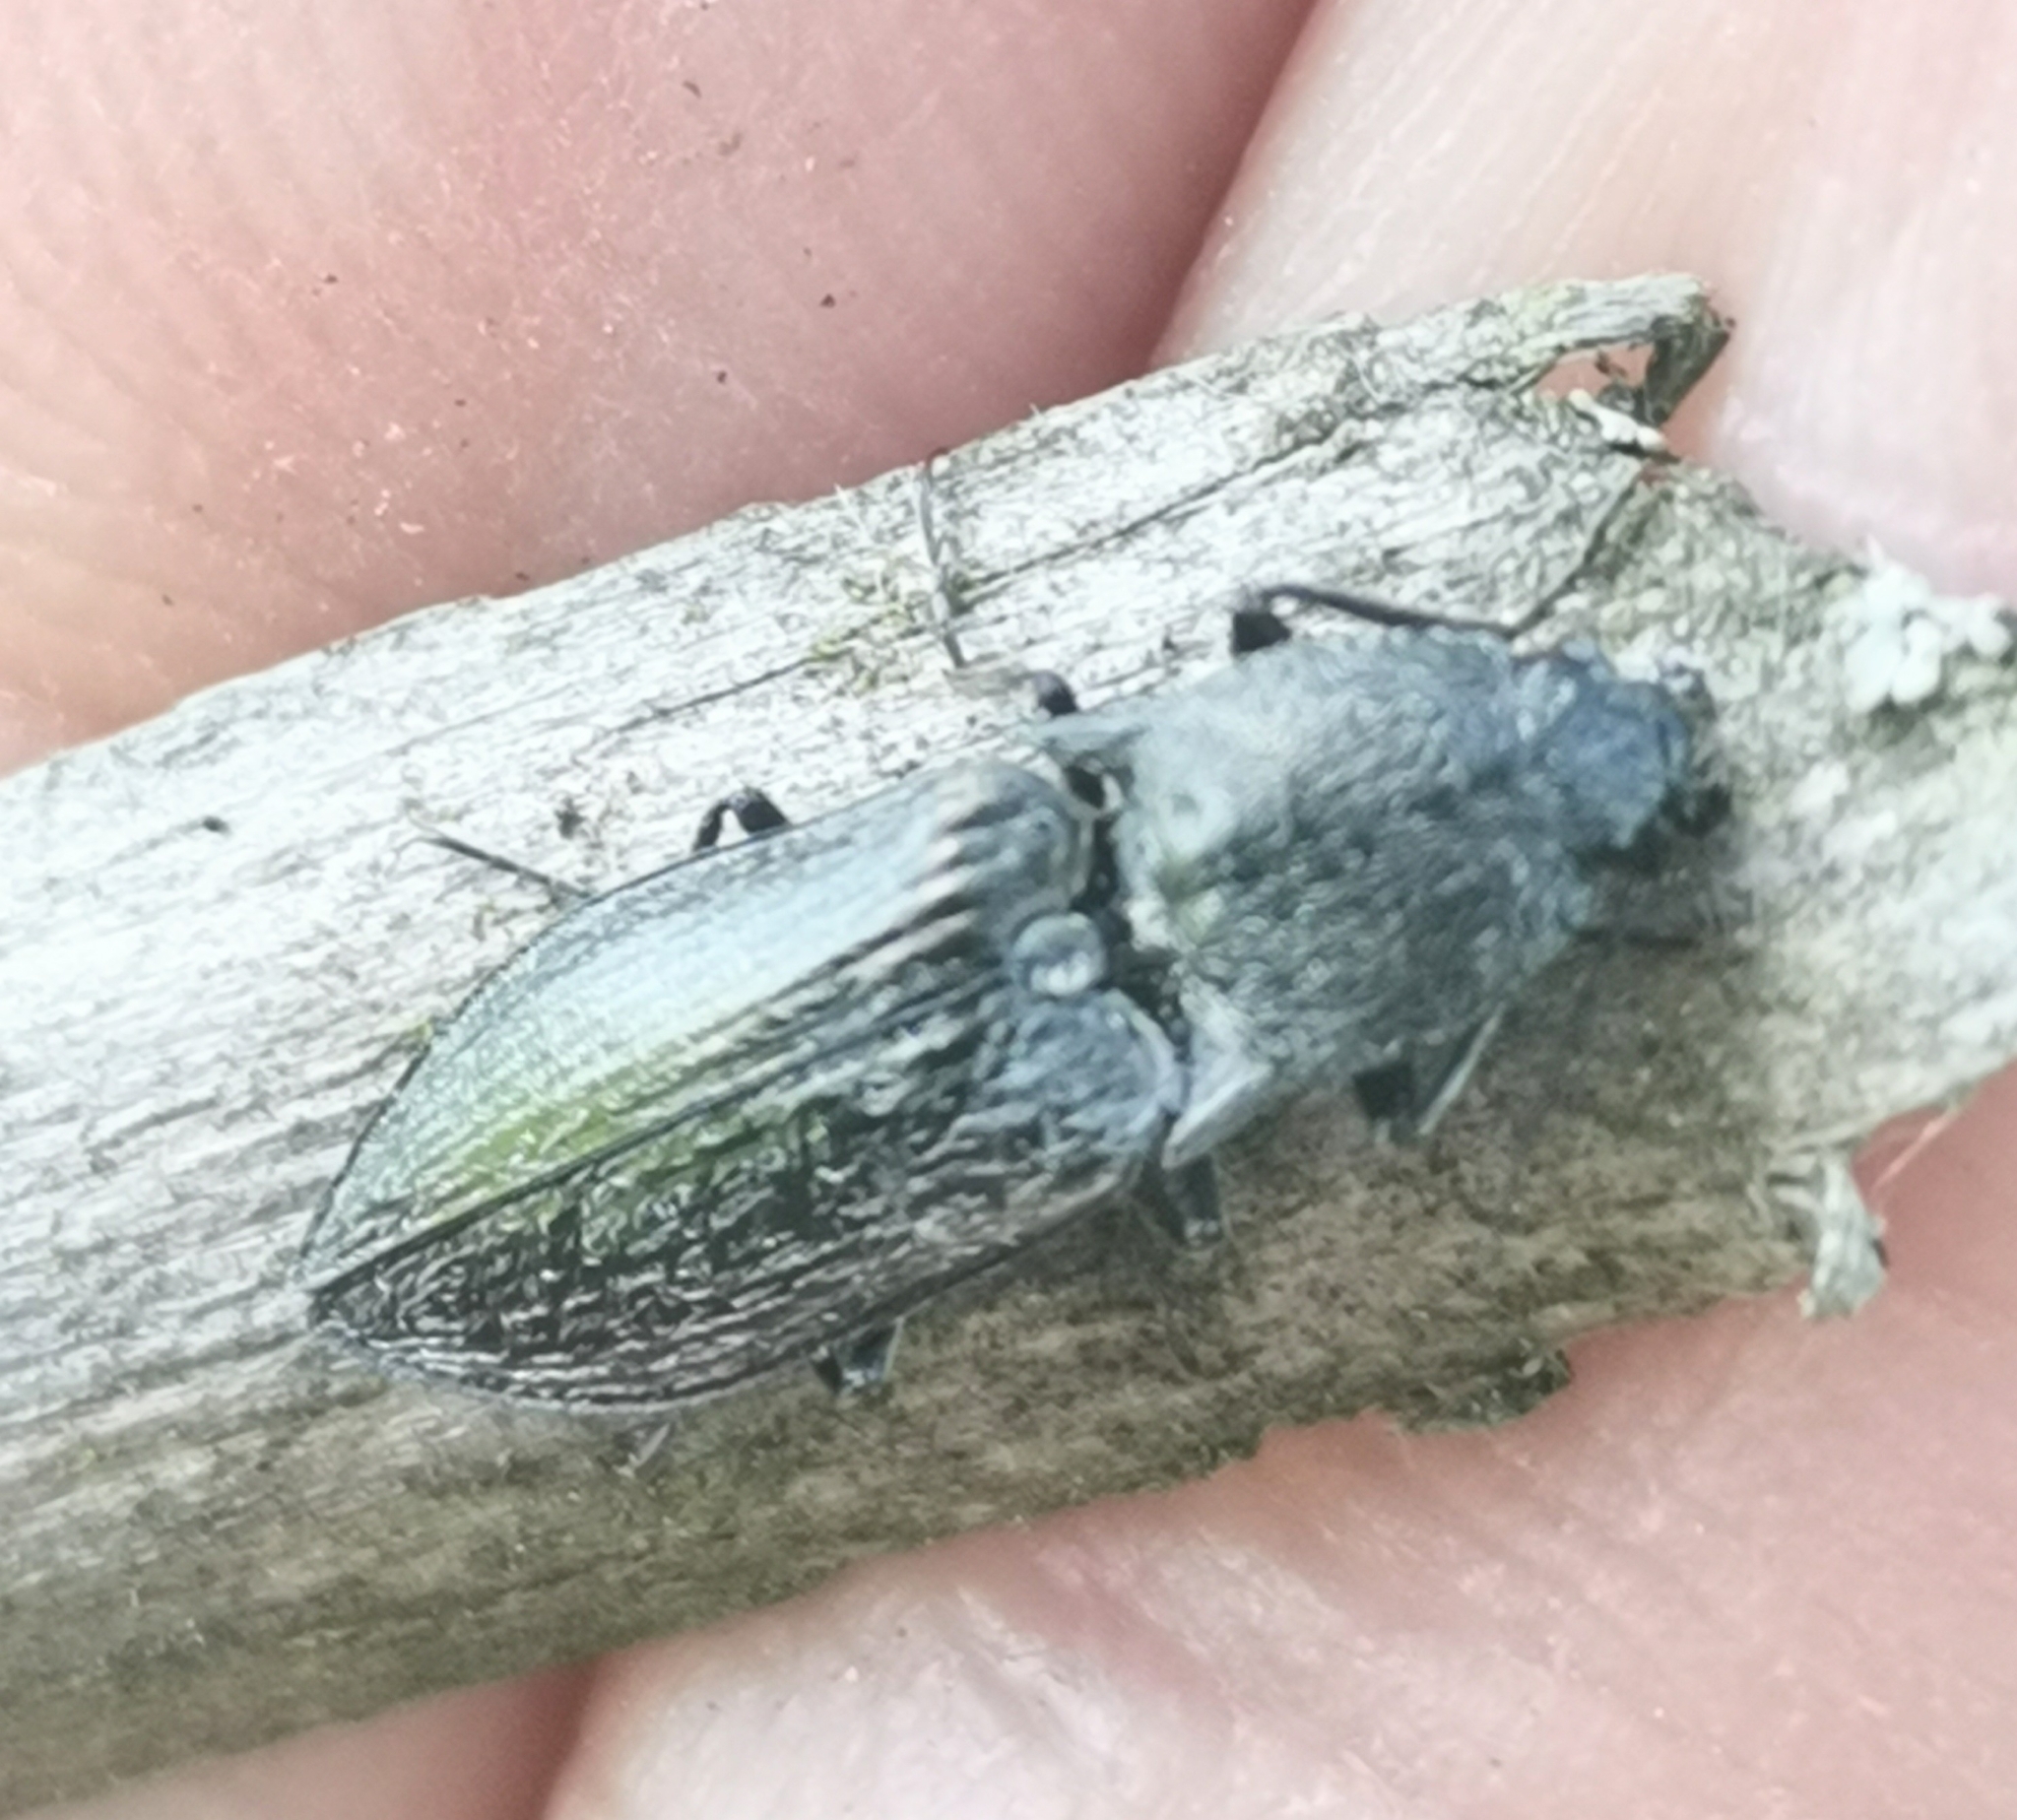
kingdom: Animalia
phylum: Arthropoda
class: Insecta
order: Coleoptera
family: Elateridae
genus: Paraphotistus
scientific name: Paraphotistus impressus
